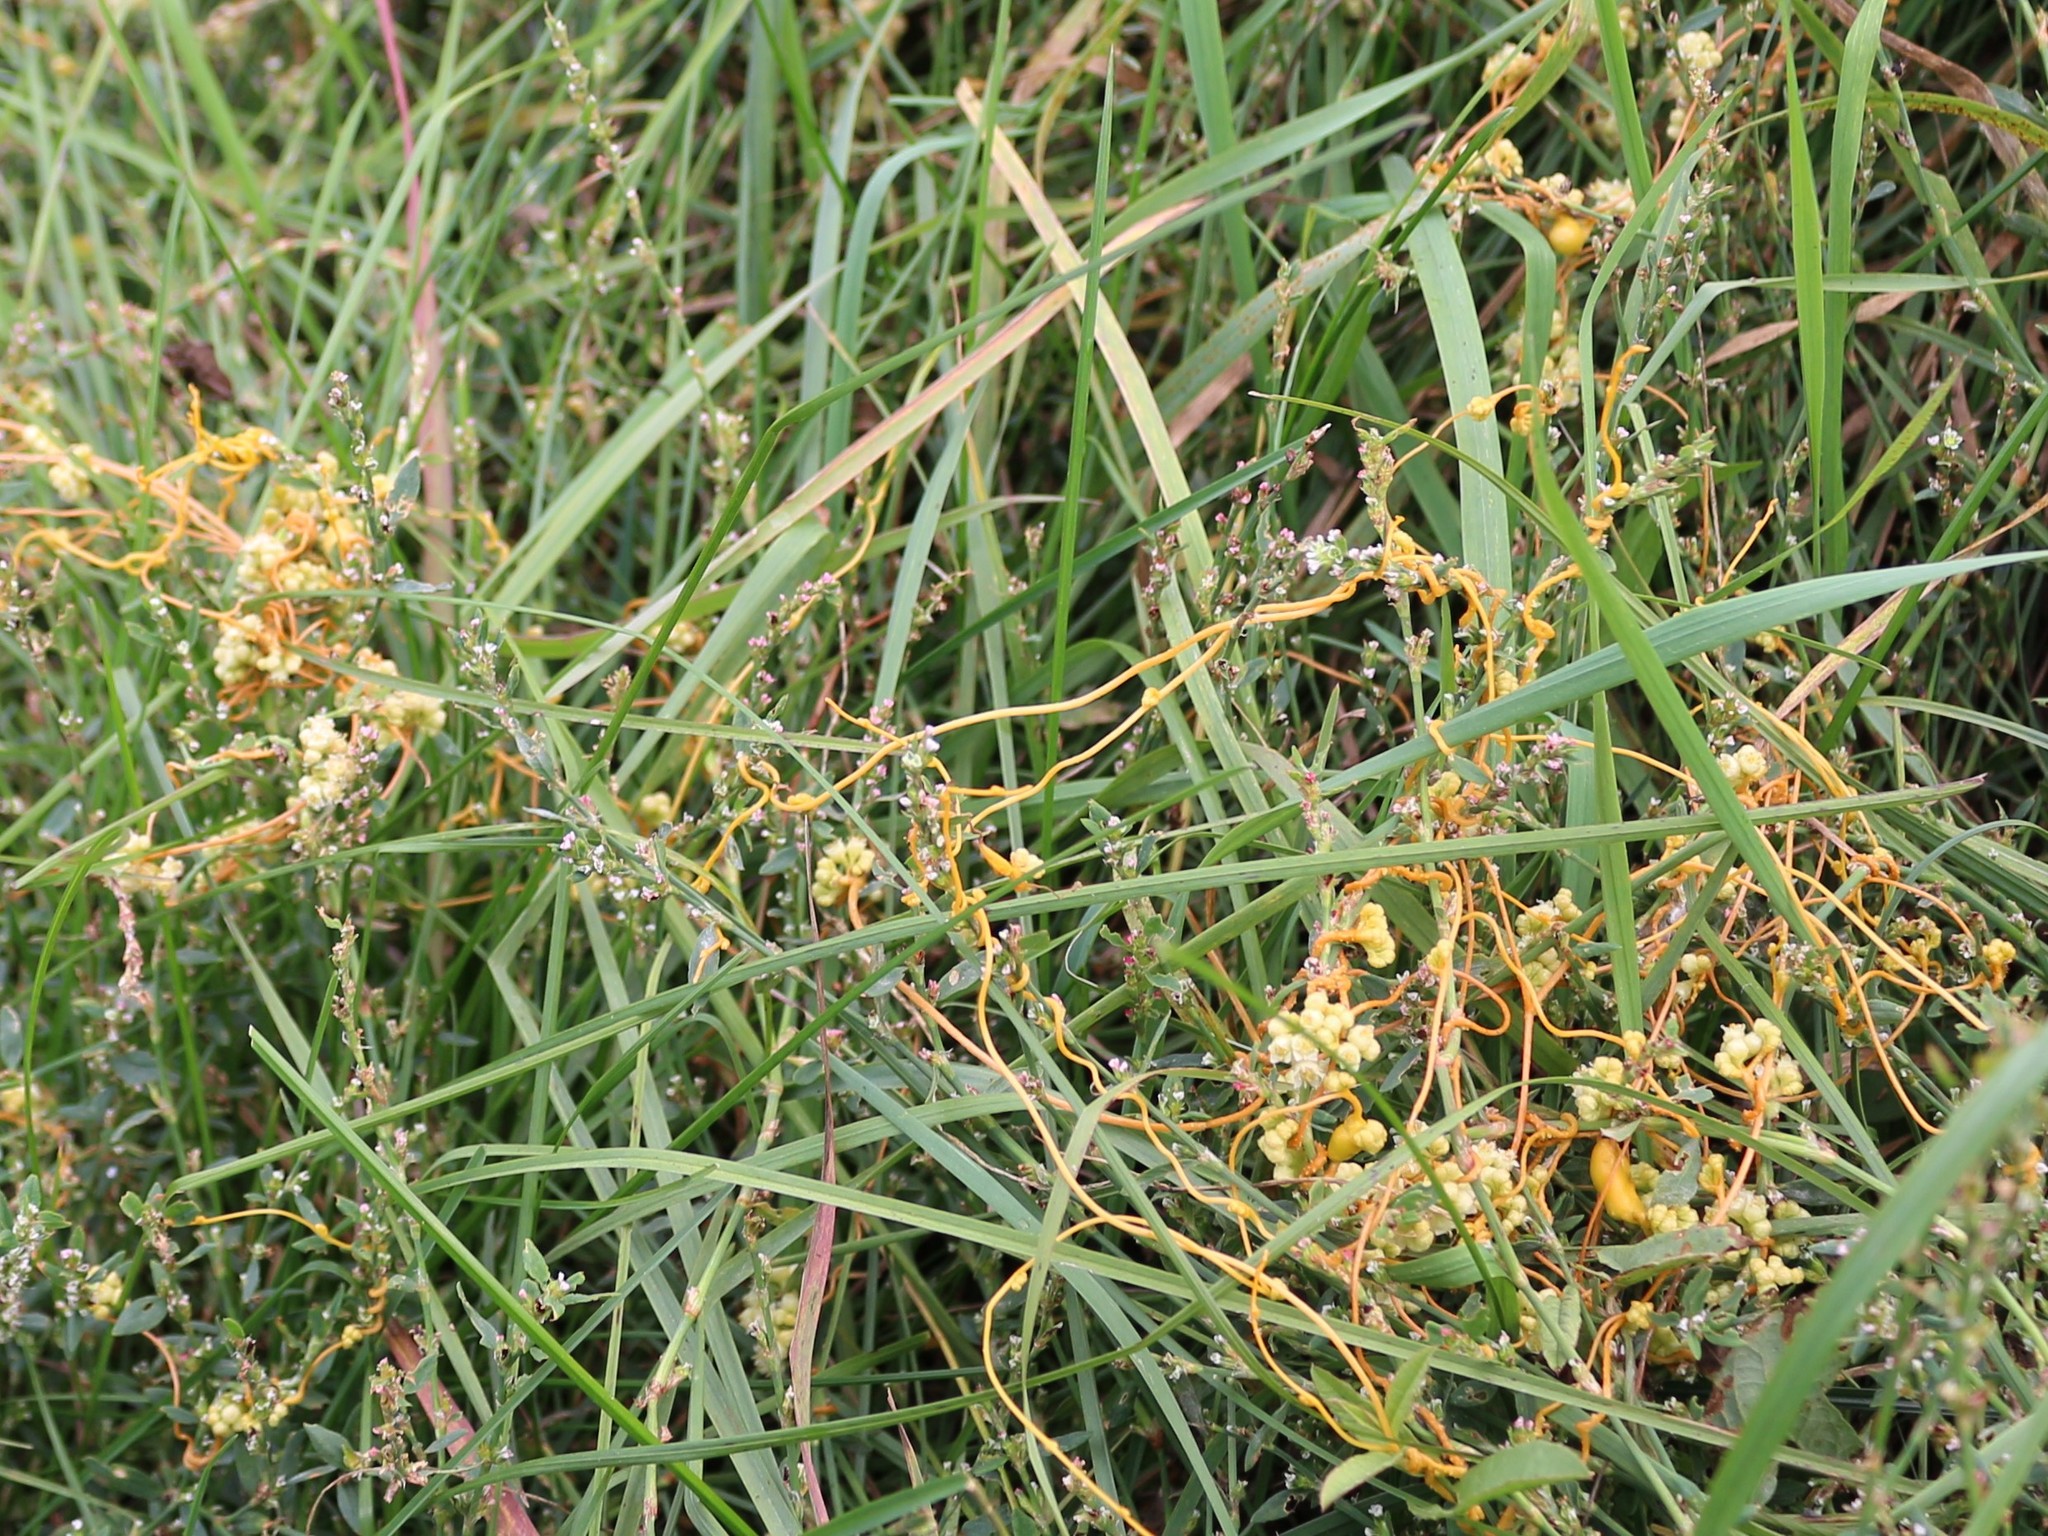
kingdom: Plantae
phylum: Tracheophyta
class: Magnoliopsida
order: Solanales
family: Convolvulaceae
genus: Cuscuta
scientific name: Cuscuta campestris
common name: Yellow dodder
